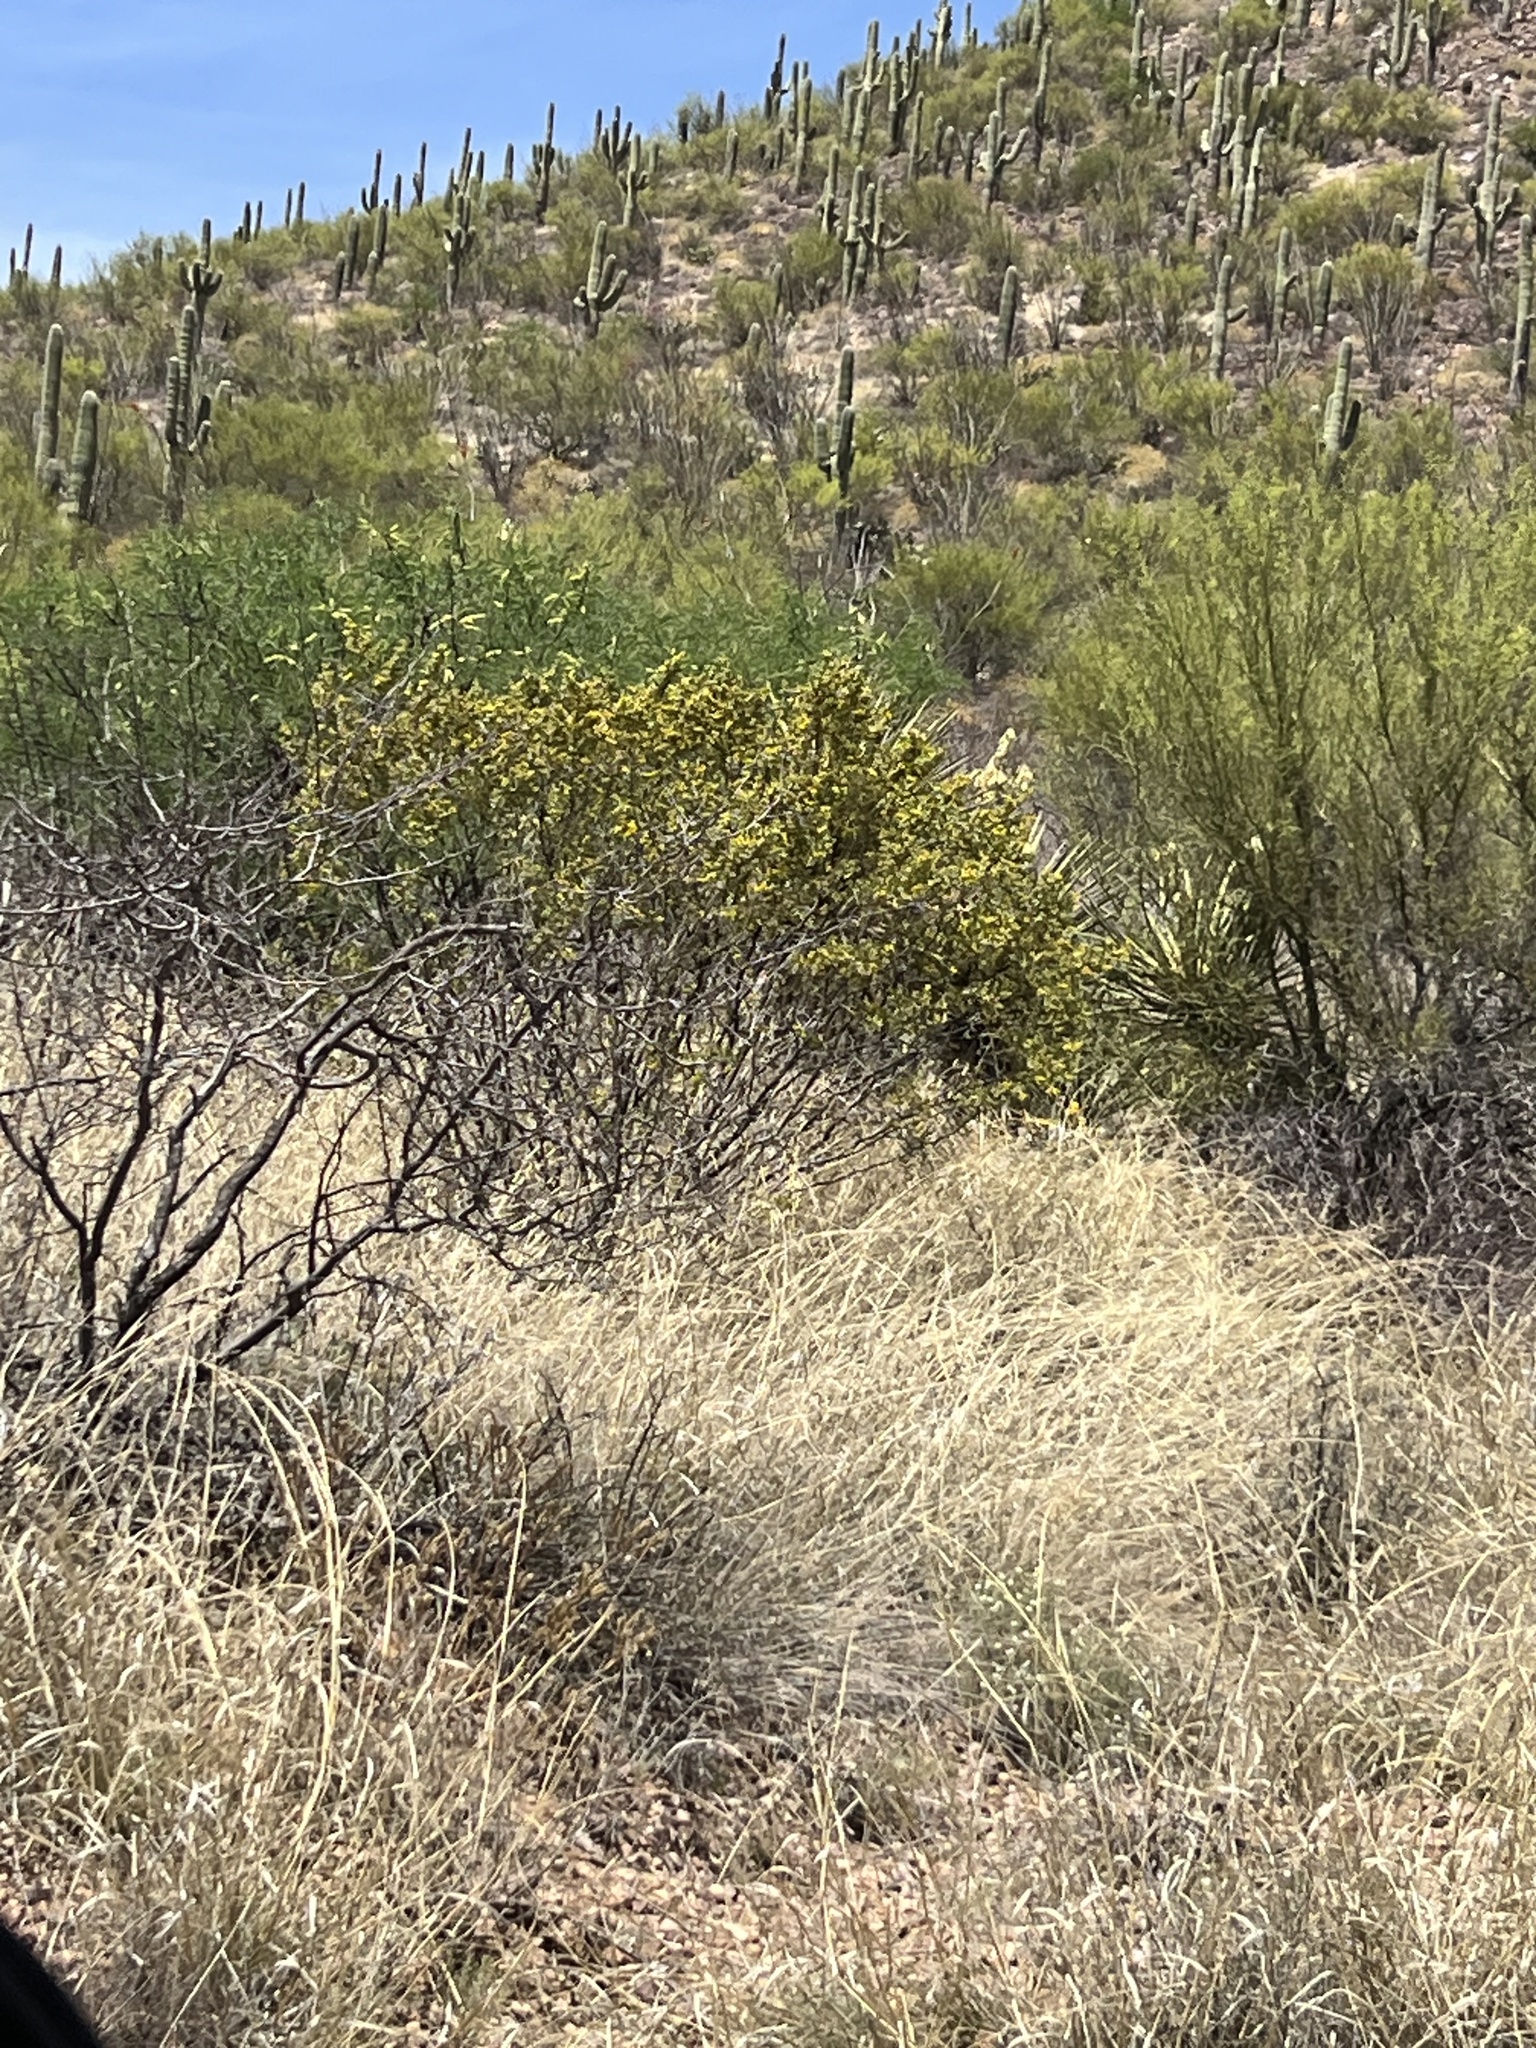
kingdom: Plantae
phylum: Tracheophyta
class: Magnoliopsida
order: Zygophyllales
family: Zygophyllaceae
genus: Larrea
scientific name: Larrea tridentata
